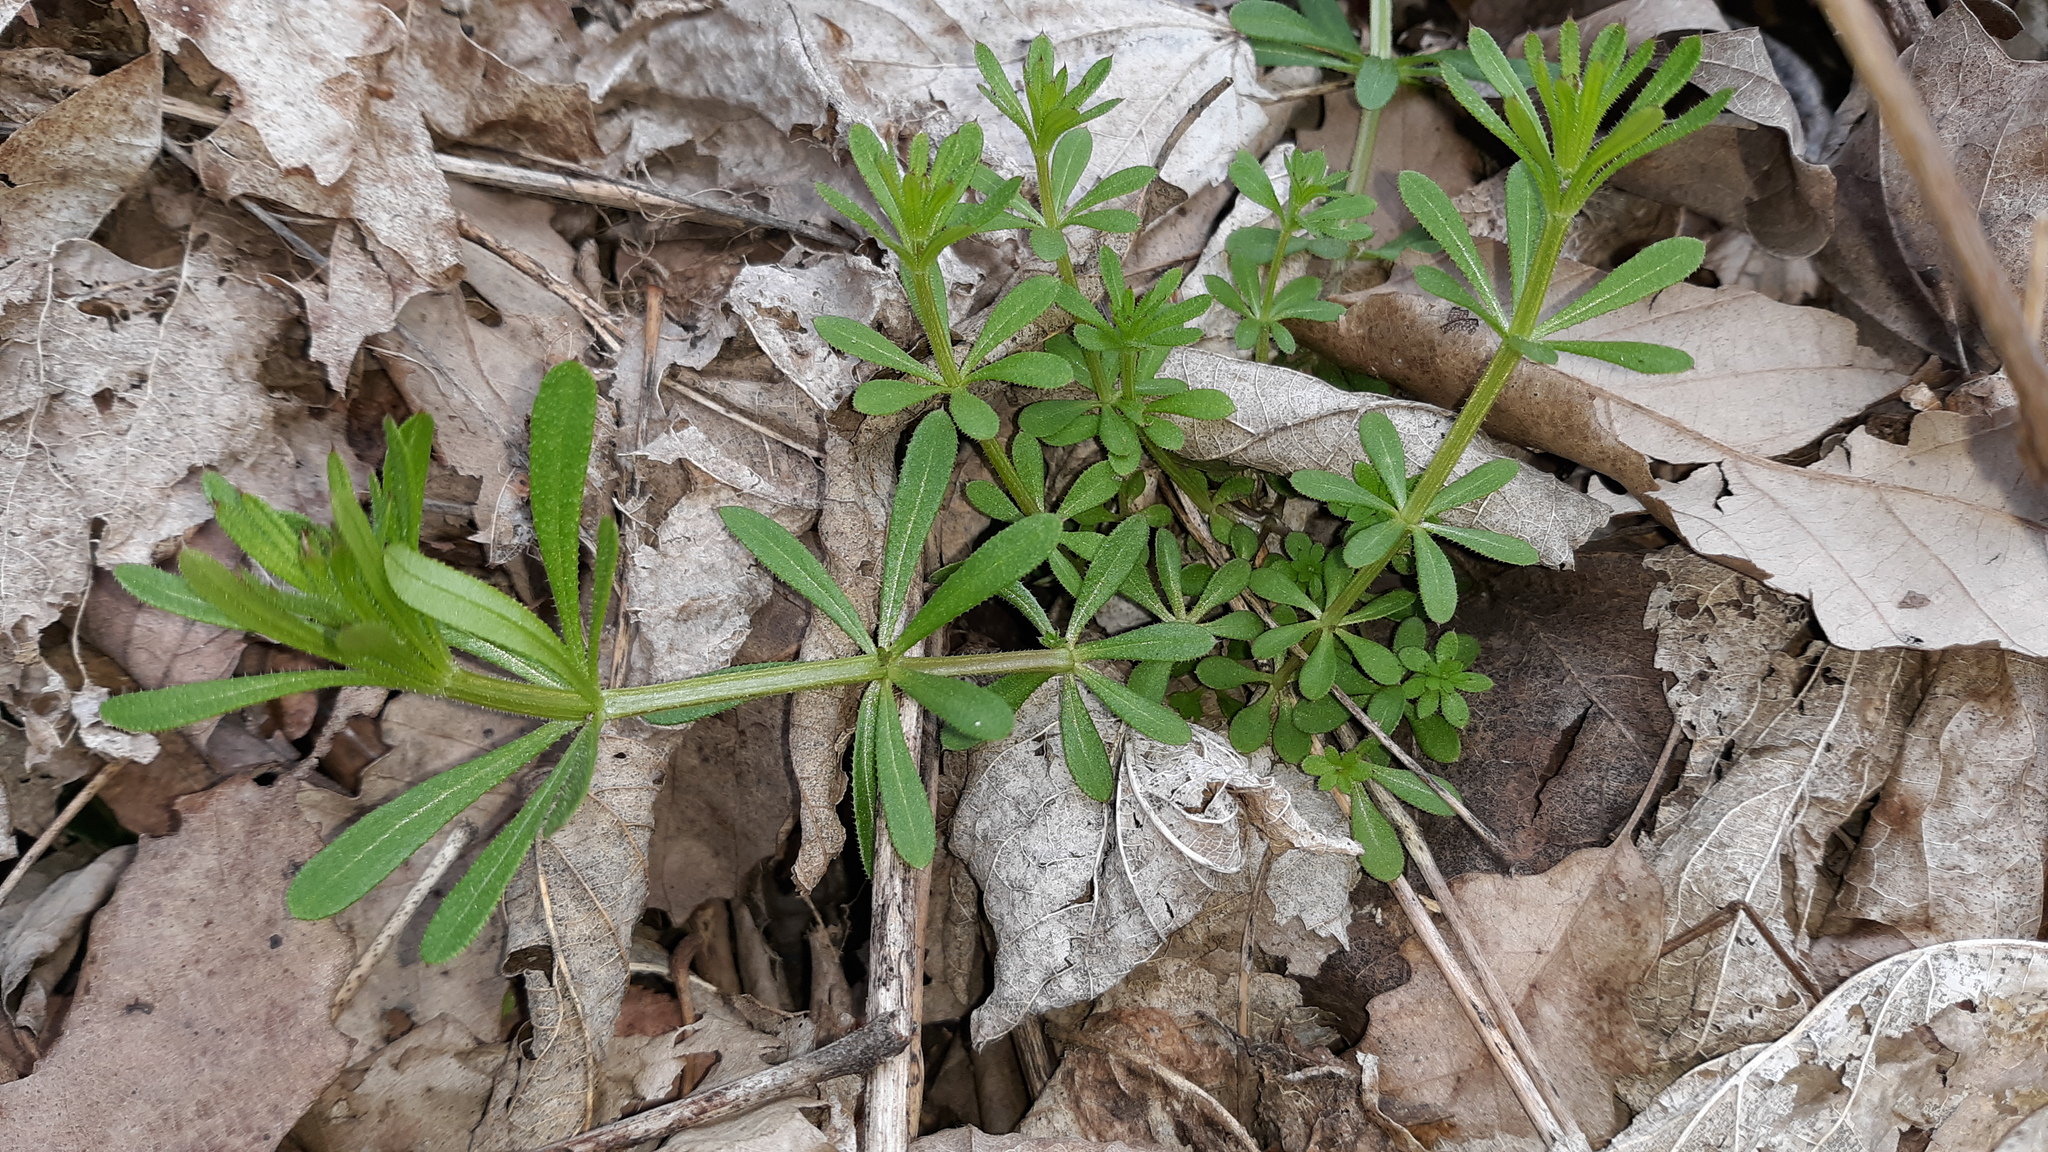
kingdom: Plantae
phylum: Tracheophyta
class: Magnoliopsida
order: Gentianales
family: Rubiaceae
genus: Galium
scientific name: Galium aparine
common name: Cleavers
